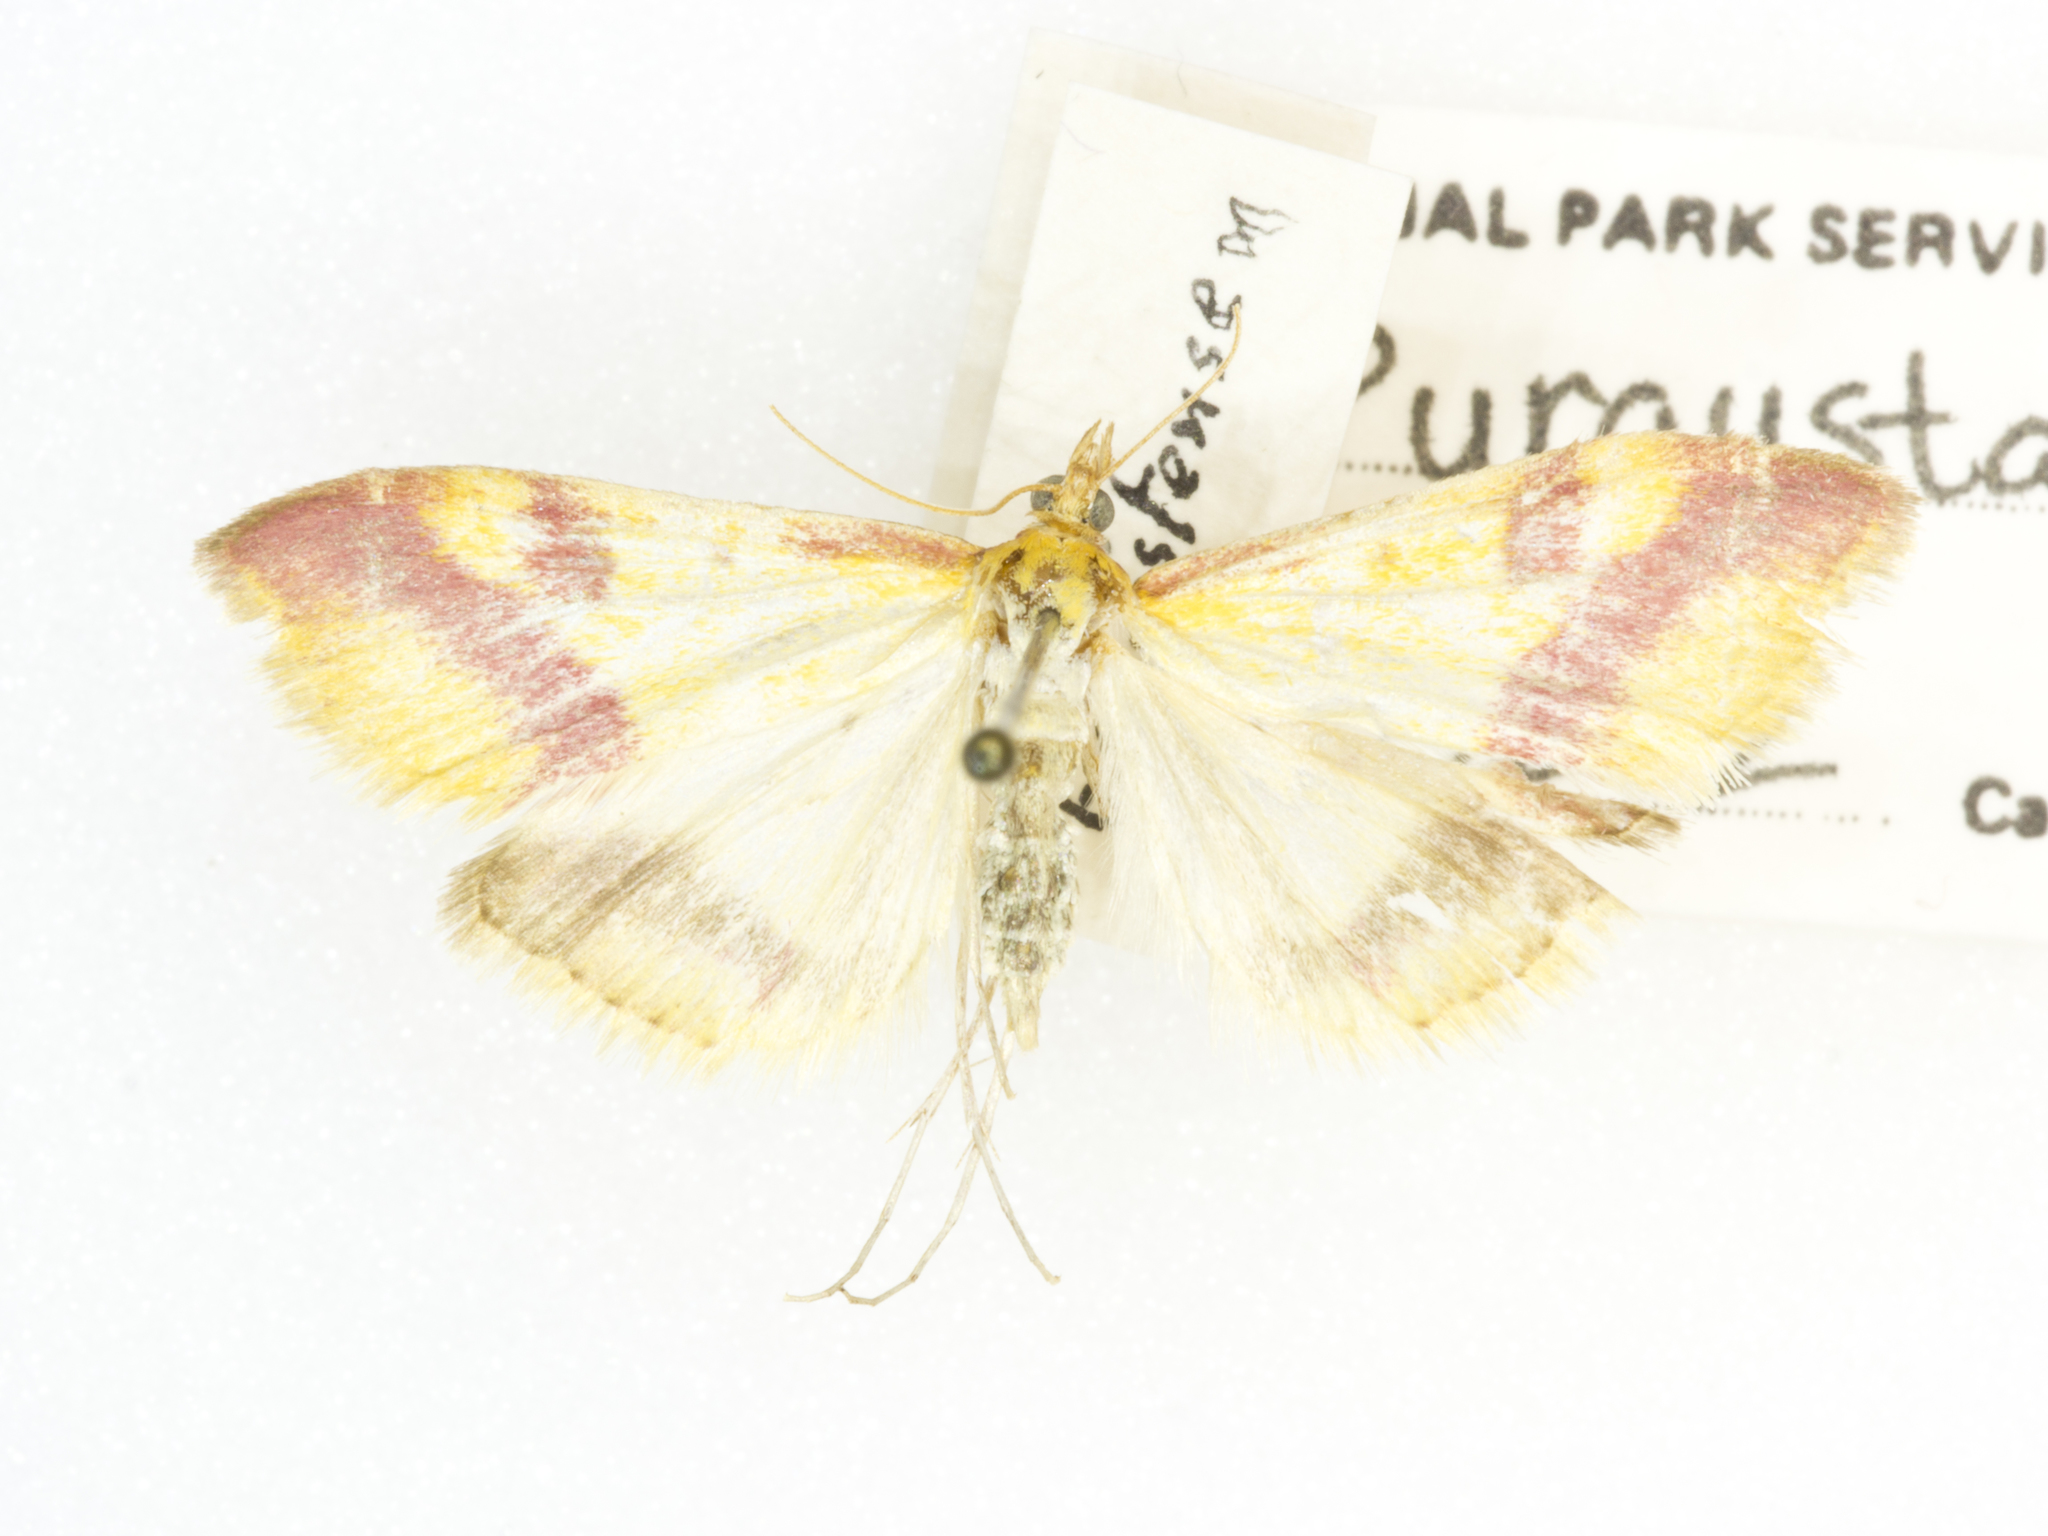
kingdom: Animalia
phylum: Arthropoda
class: Insecta
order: Lepidoptera
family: Crambidae
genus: Pyrausta
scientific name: Pyrausta scurralis
